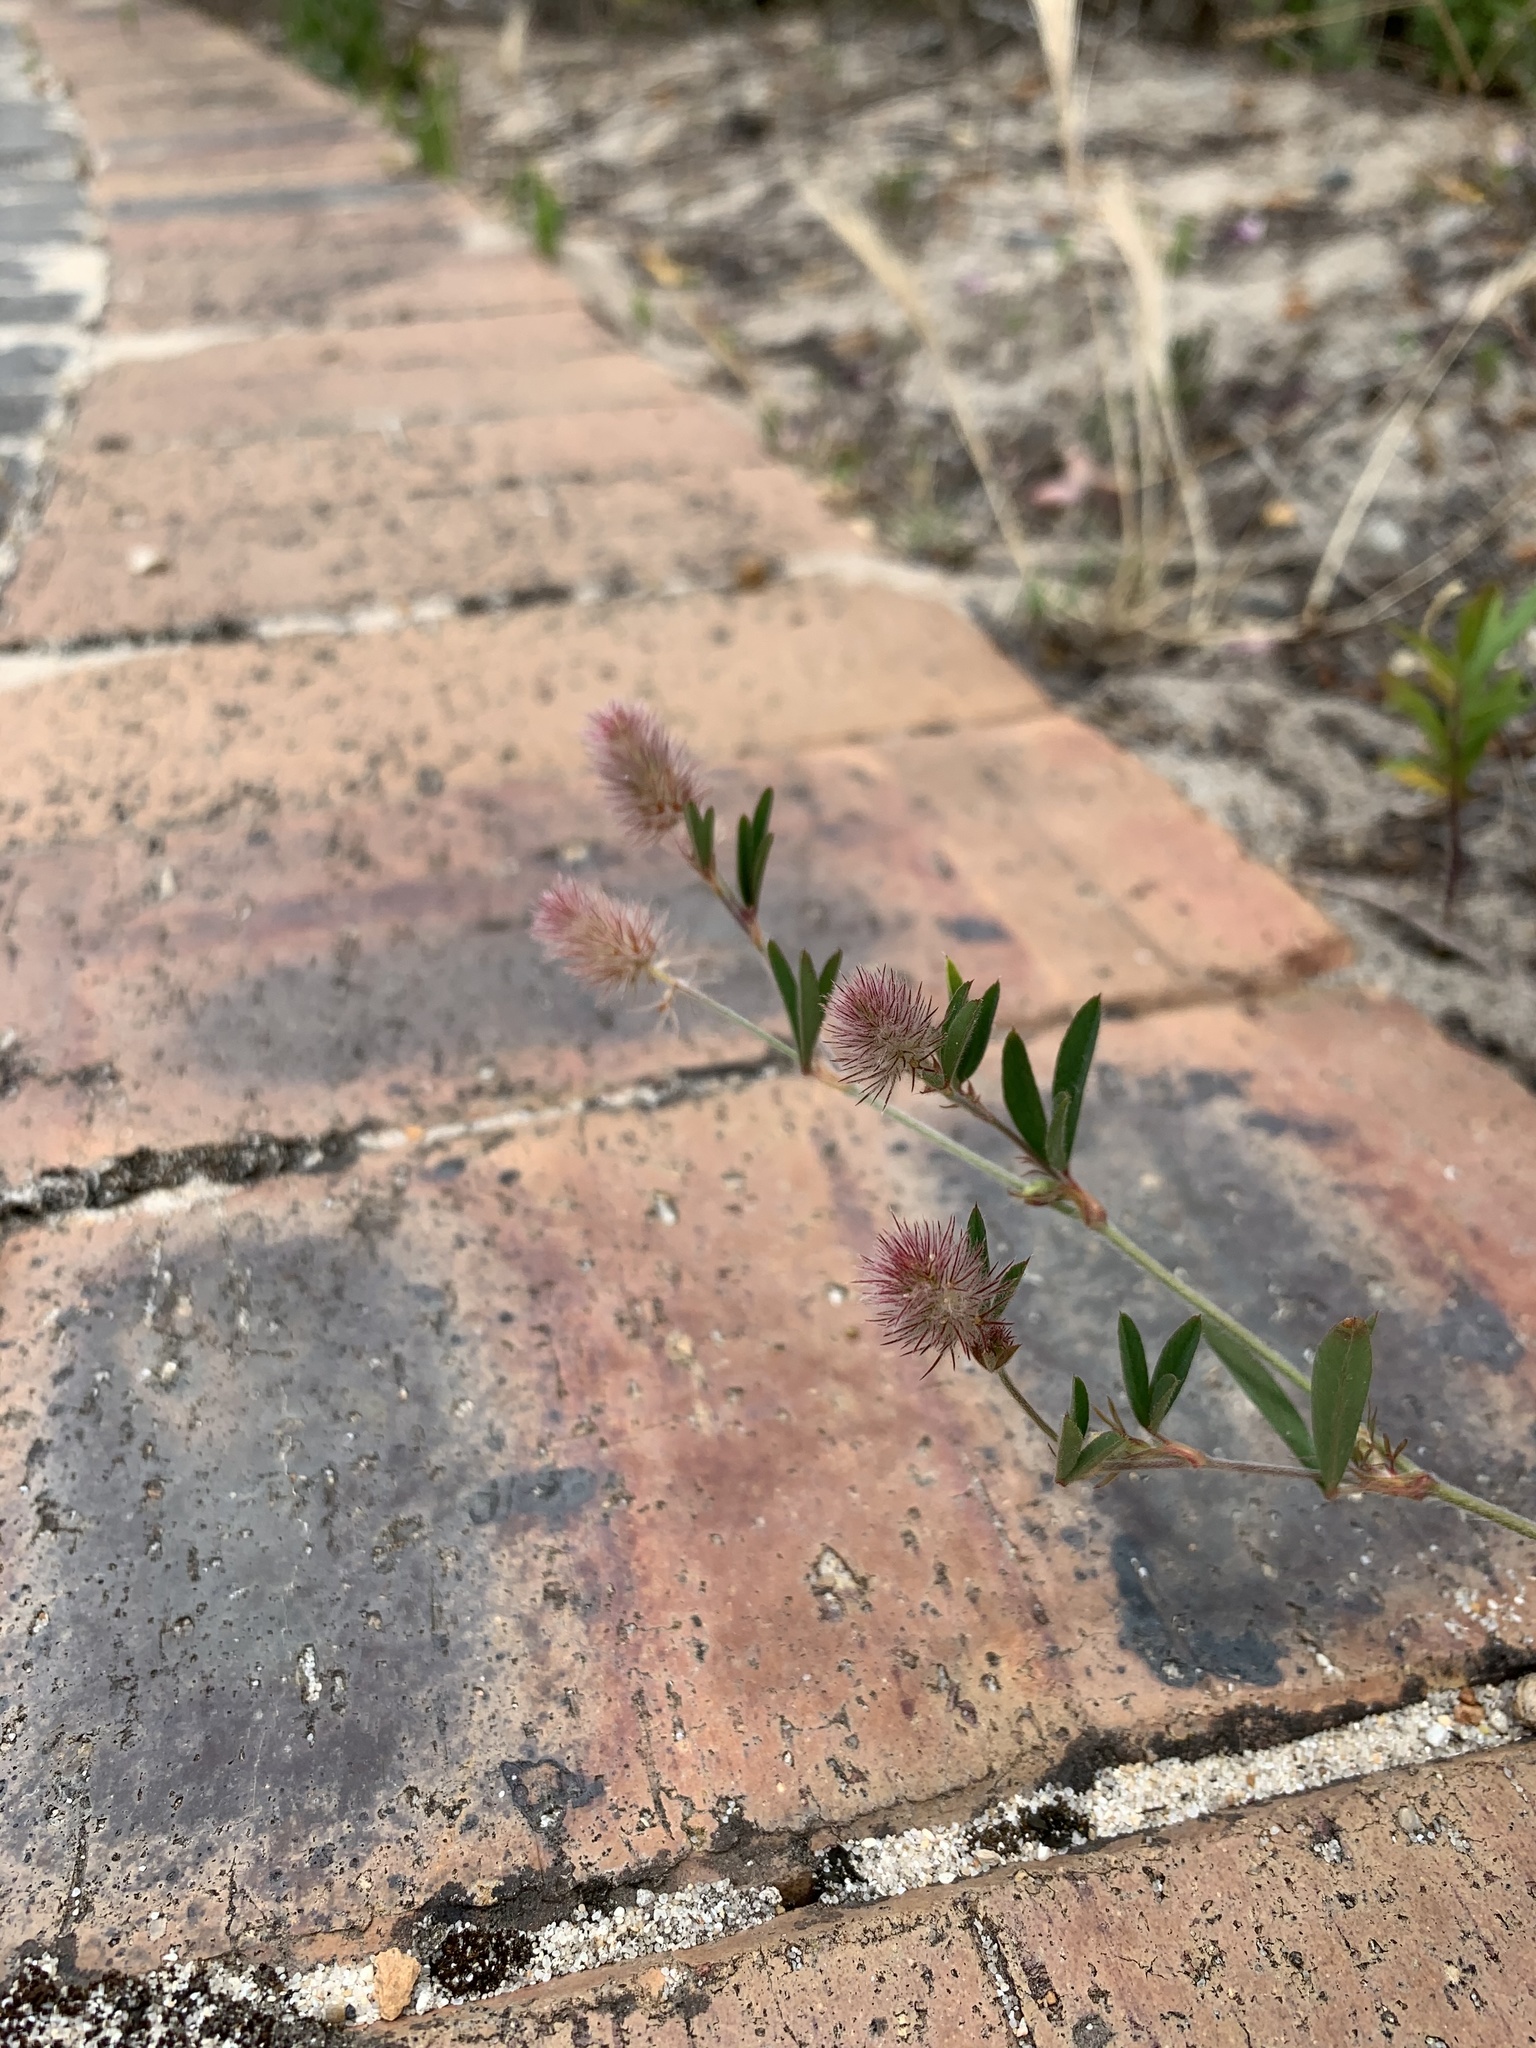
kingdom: Plantae
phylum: Tracheophyta
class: Magnoliopsida
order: Fabales
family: Fabaceae
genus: Trifolium
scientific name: Trifolium arvense
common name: Hare's-foot clover
